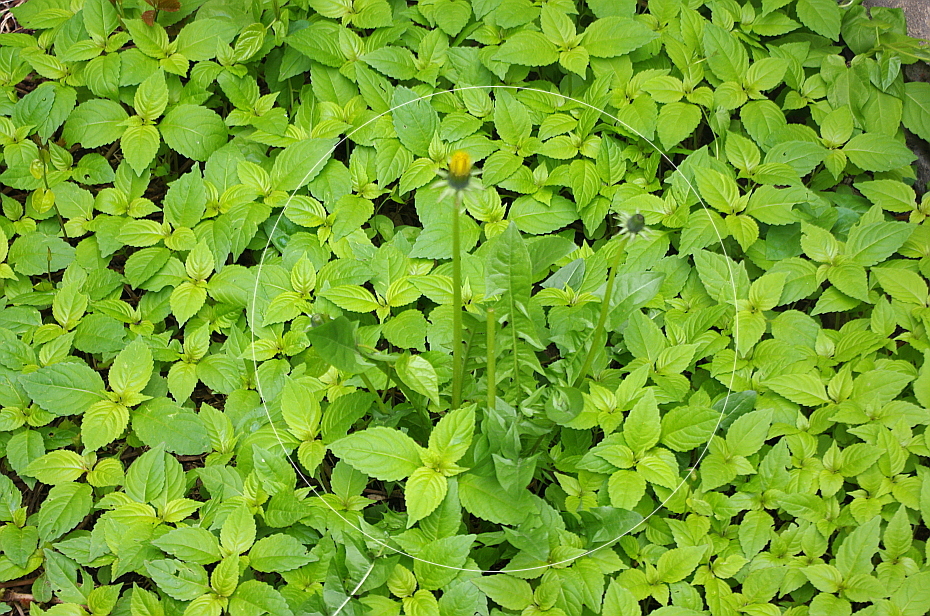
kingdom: Plantae
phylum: Tracheophyta
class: Magnoliopsida
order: Asterales
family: Asteraceae
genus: Taraxacum
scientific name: Taraxacum officinale
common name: Common dandelion
